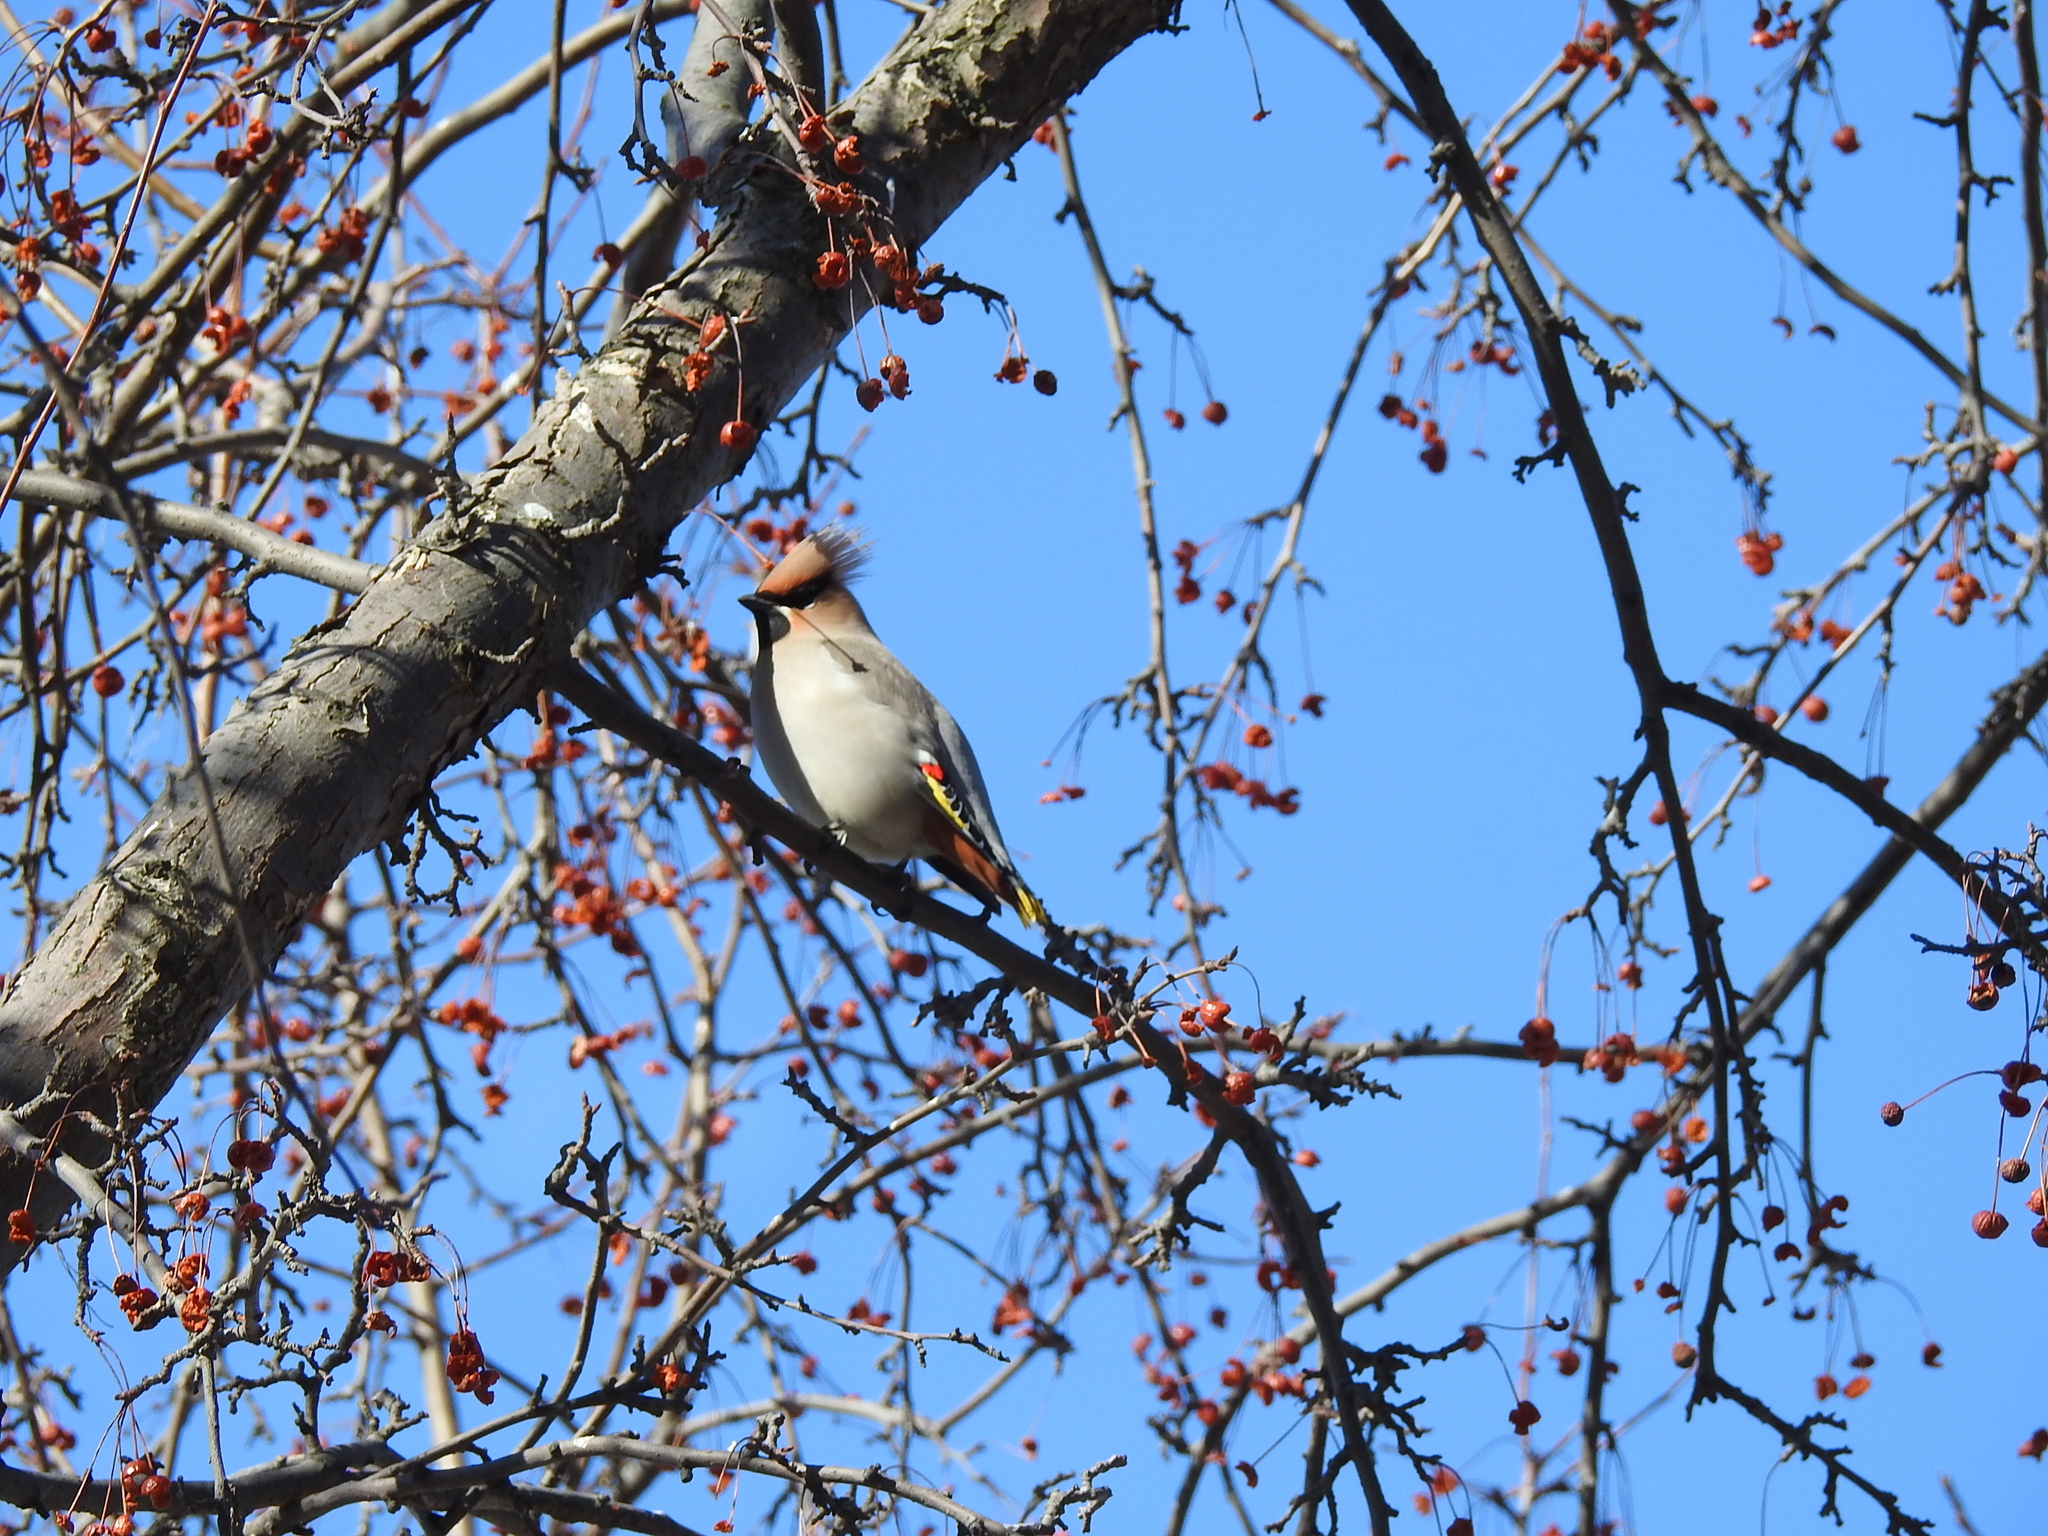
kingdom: Animalia
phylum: Chordata
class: Aves
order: Passeriformes
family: Bombycillidae
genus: Bombycilla
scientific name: Bombycilla garrulus
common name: Bohemian waxwing
